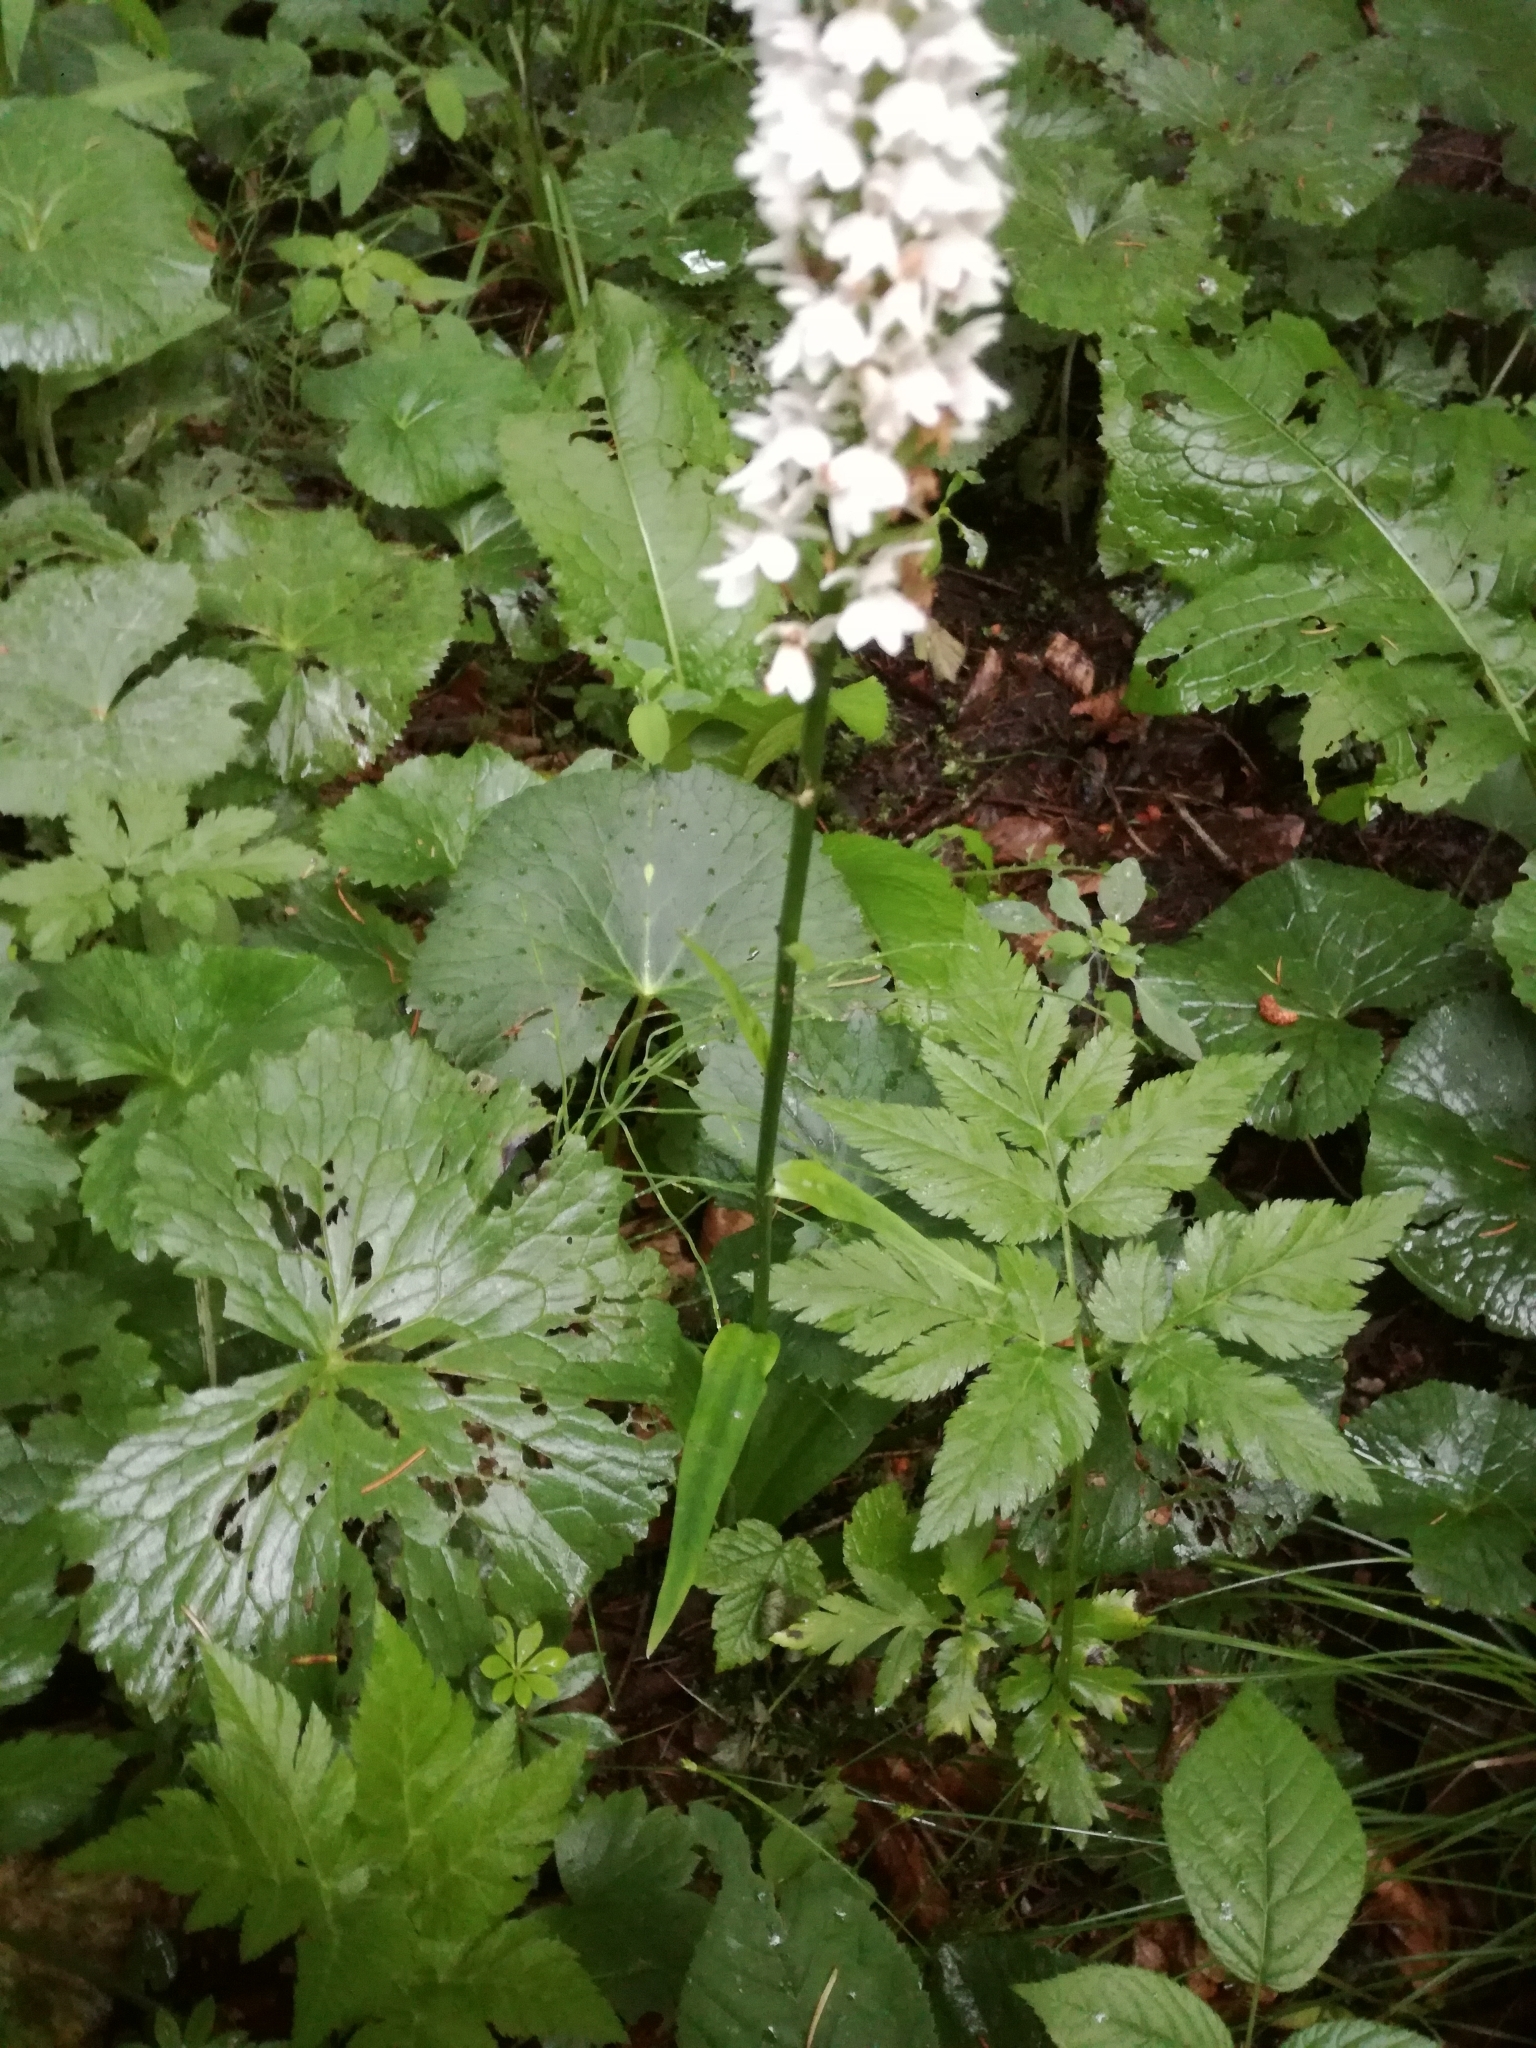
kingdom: Plantae
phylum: Tracheophyta
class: Liliopsida
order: Asparagales
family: Orchidaceae
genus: Dactylorhiza
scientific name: Dactylorhiza maculata
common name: Heath spotted-orchid
